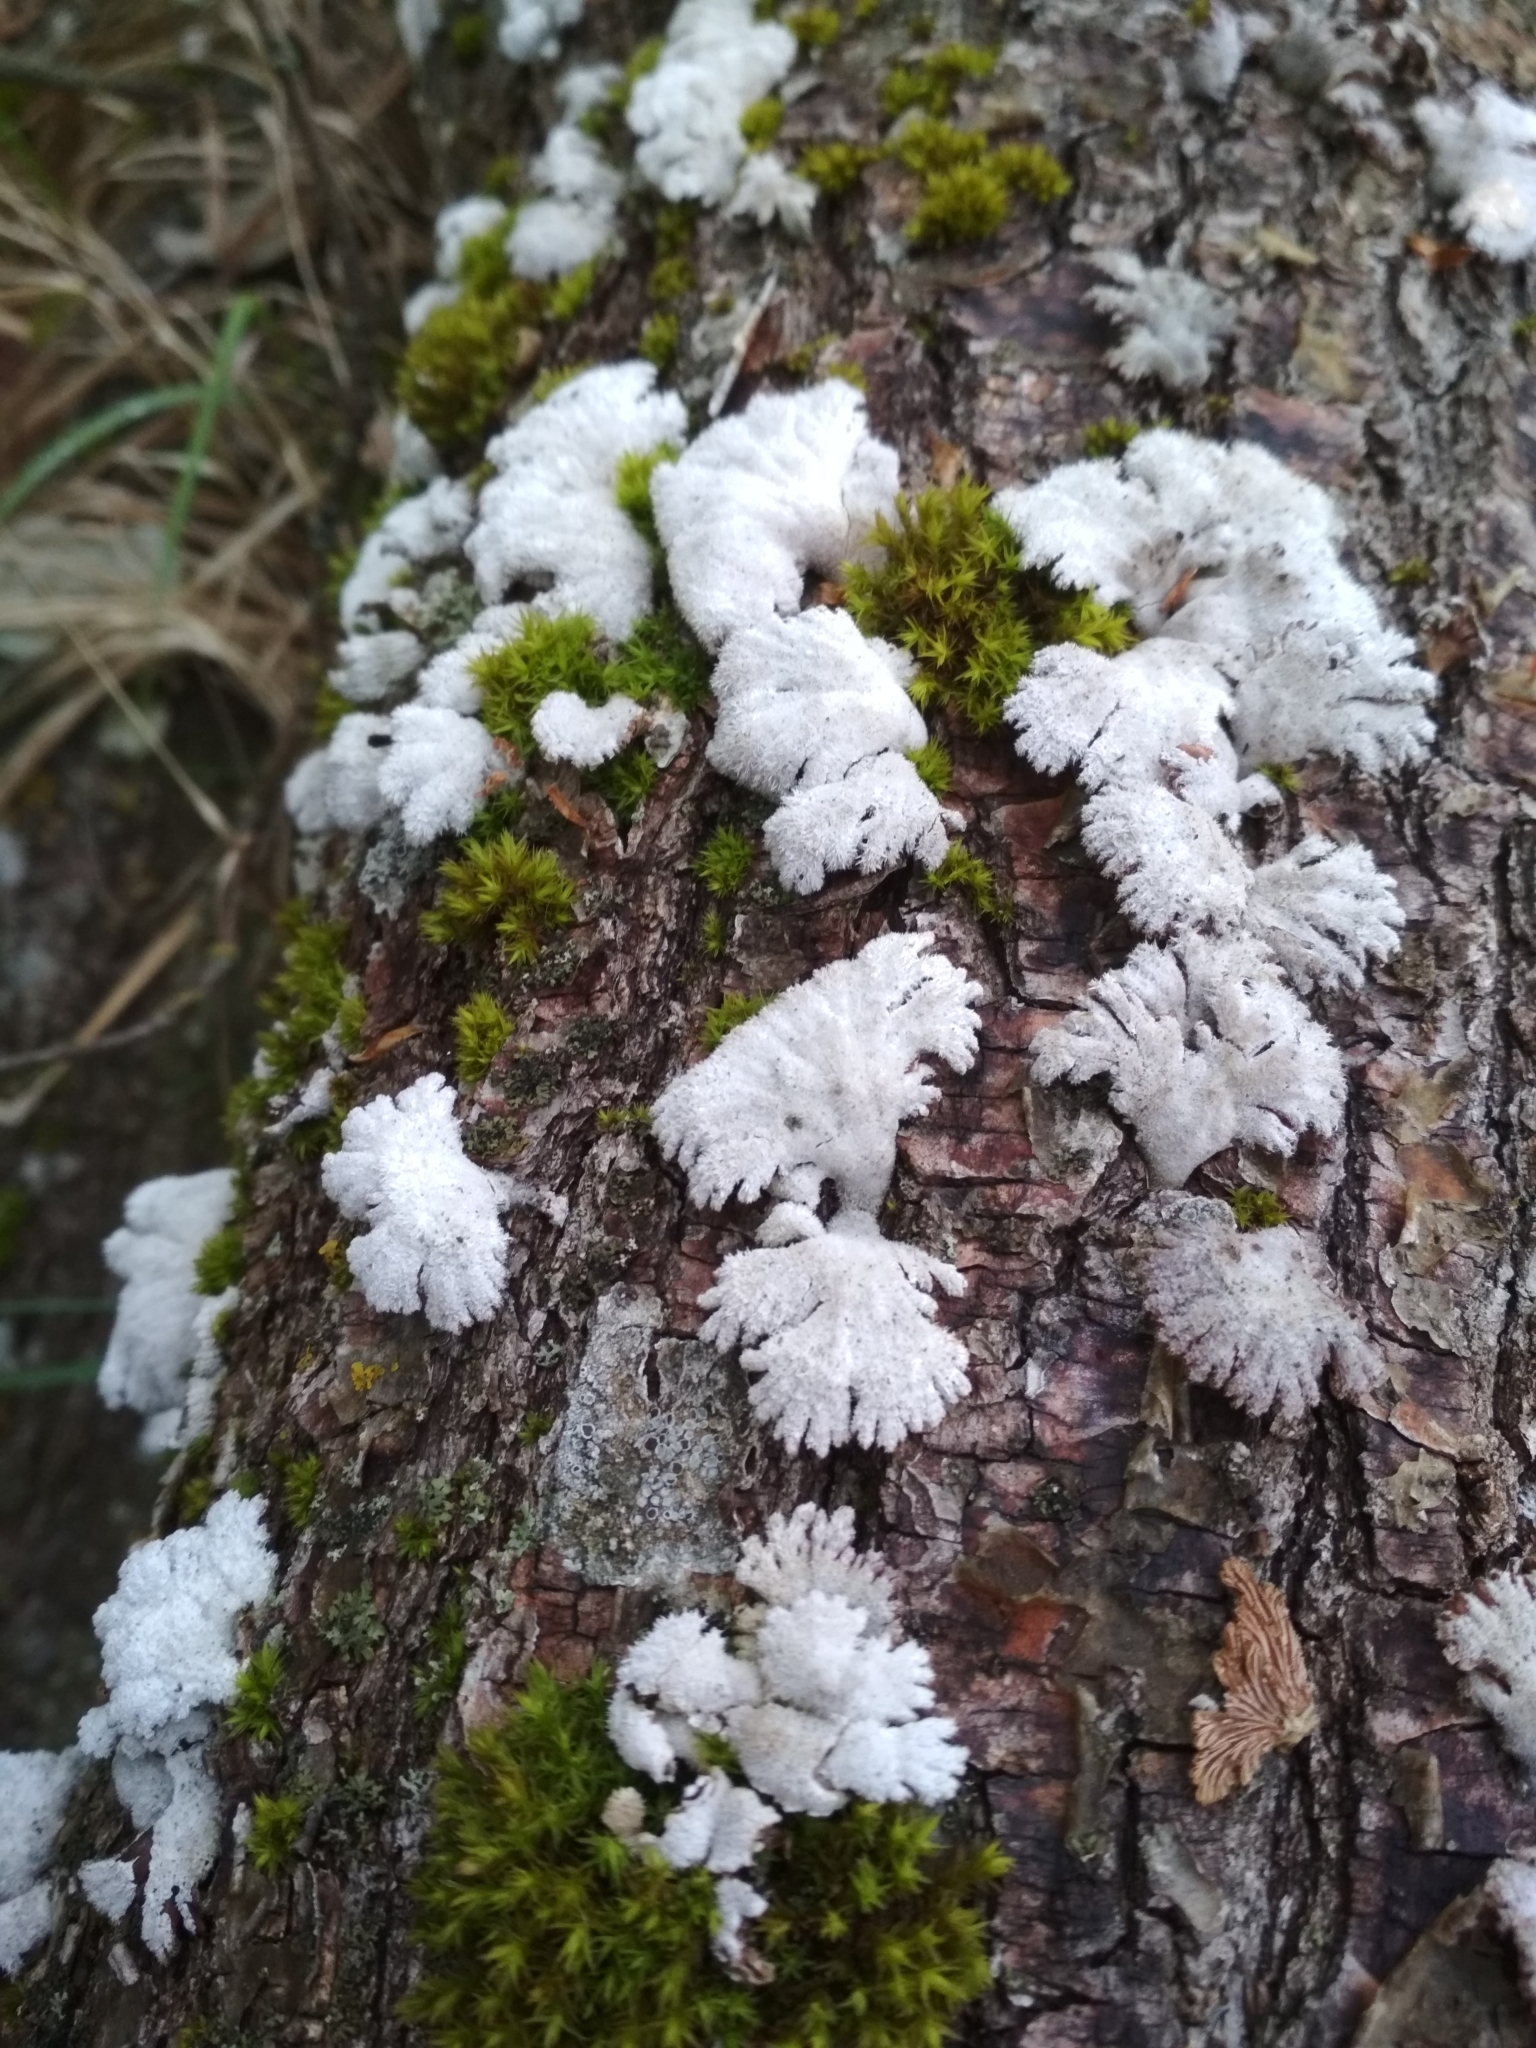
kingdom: Fungi
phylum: Basidiomycota
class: Agaricomycetes
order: Agaricales
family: Schizophyllaceae
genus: Schizophyllum
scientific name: Schizophyllum commune
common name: Common porecrust
